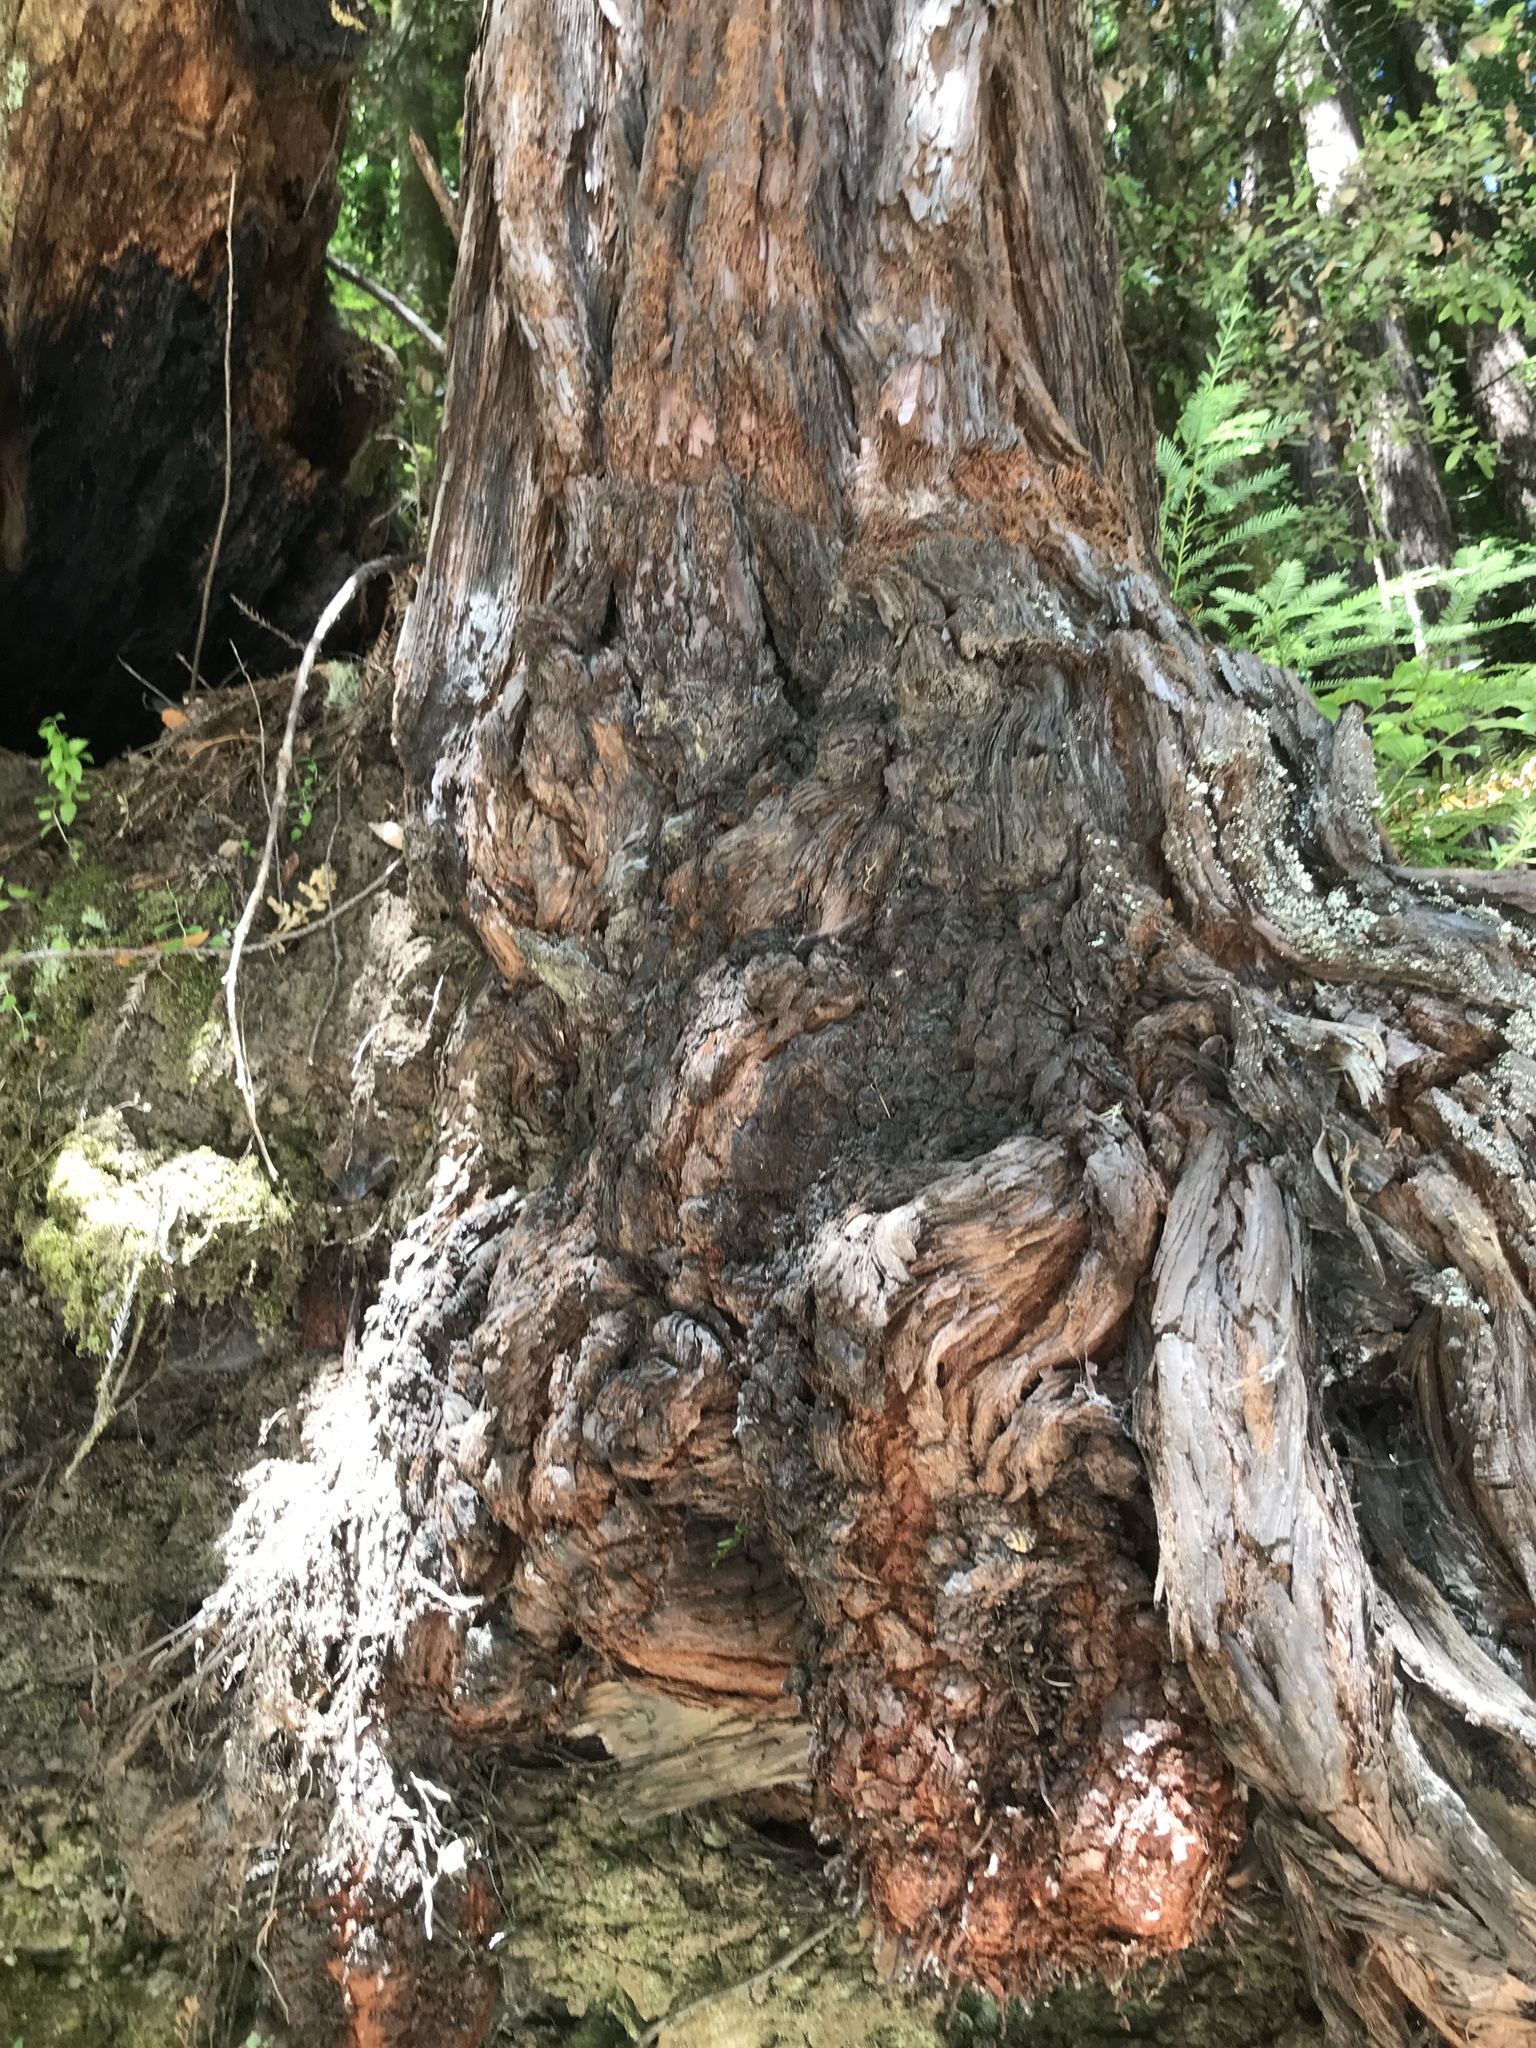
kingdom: Plantae
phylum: Tracheophyta
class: Pinopsida
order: Pinales
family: Cupressaceae
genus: Sequoia
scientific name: Sequoia sempervirens
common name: Coast redwood
